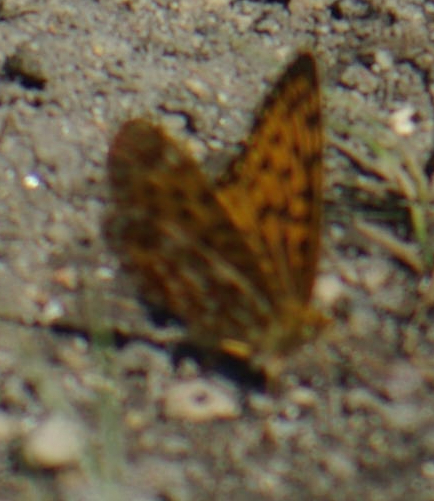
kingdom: Animalia
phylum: Arthropoda
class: Insecta
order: Lepidoptera
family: Nymphalidae
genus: Boloria
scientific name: Boloria
